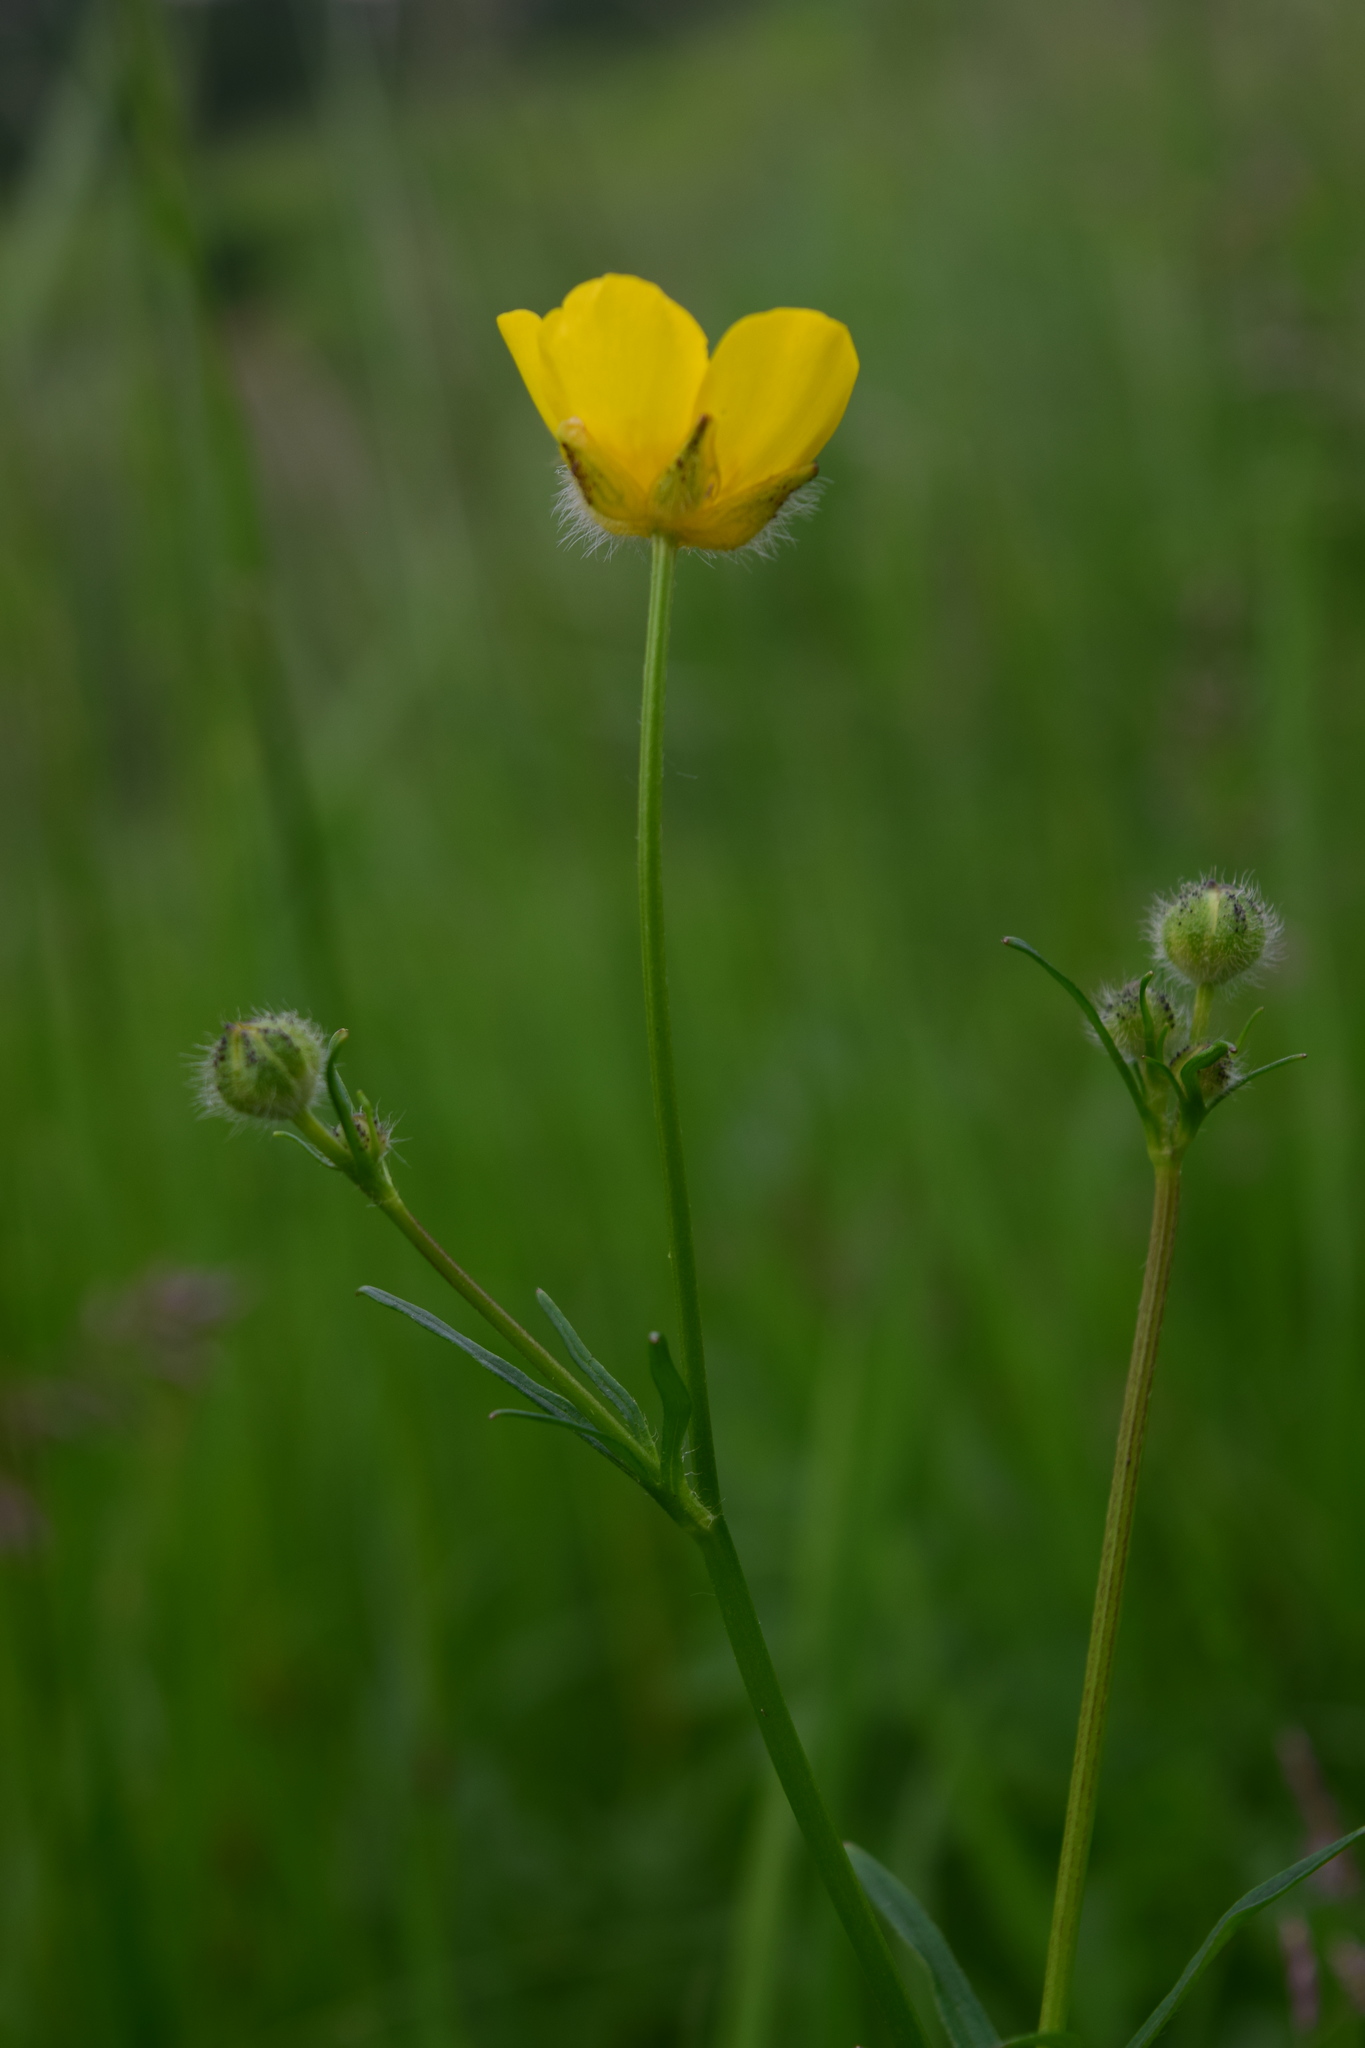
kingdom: Plantae
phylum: Tracheophyta
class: Magnoliopsida
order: Ranunculales
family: Ranunculaceae
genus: Ranunculus
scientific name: Ranunculus polyanthemos
